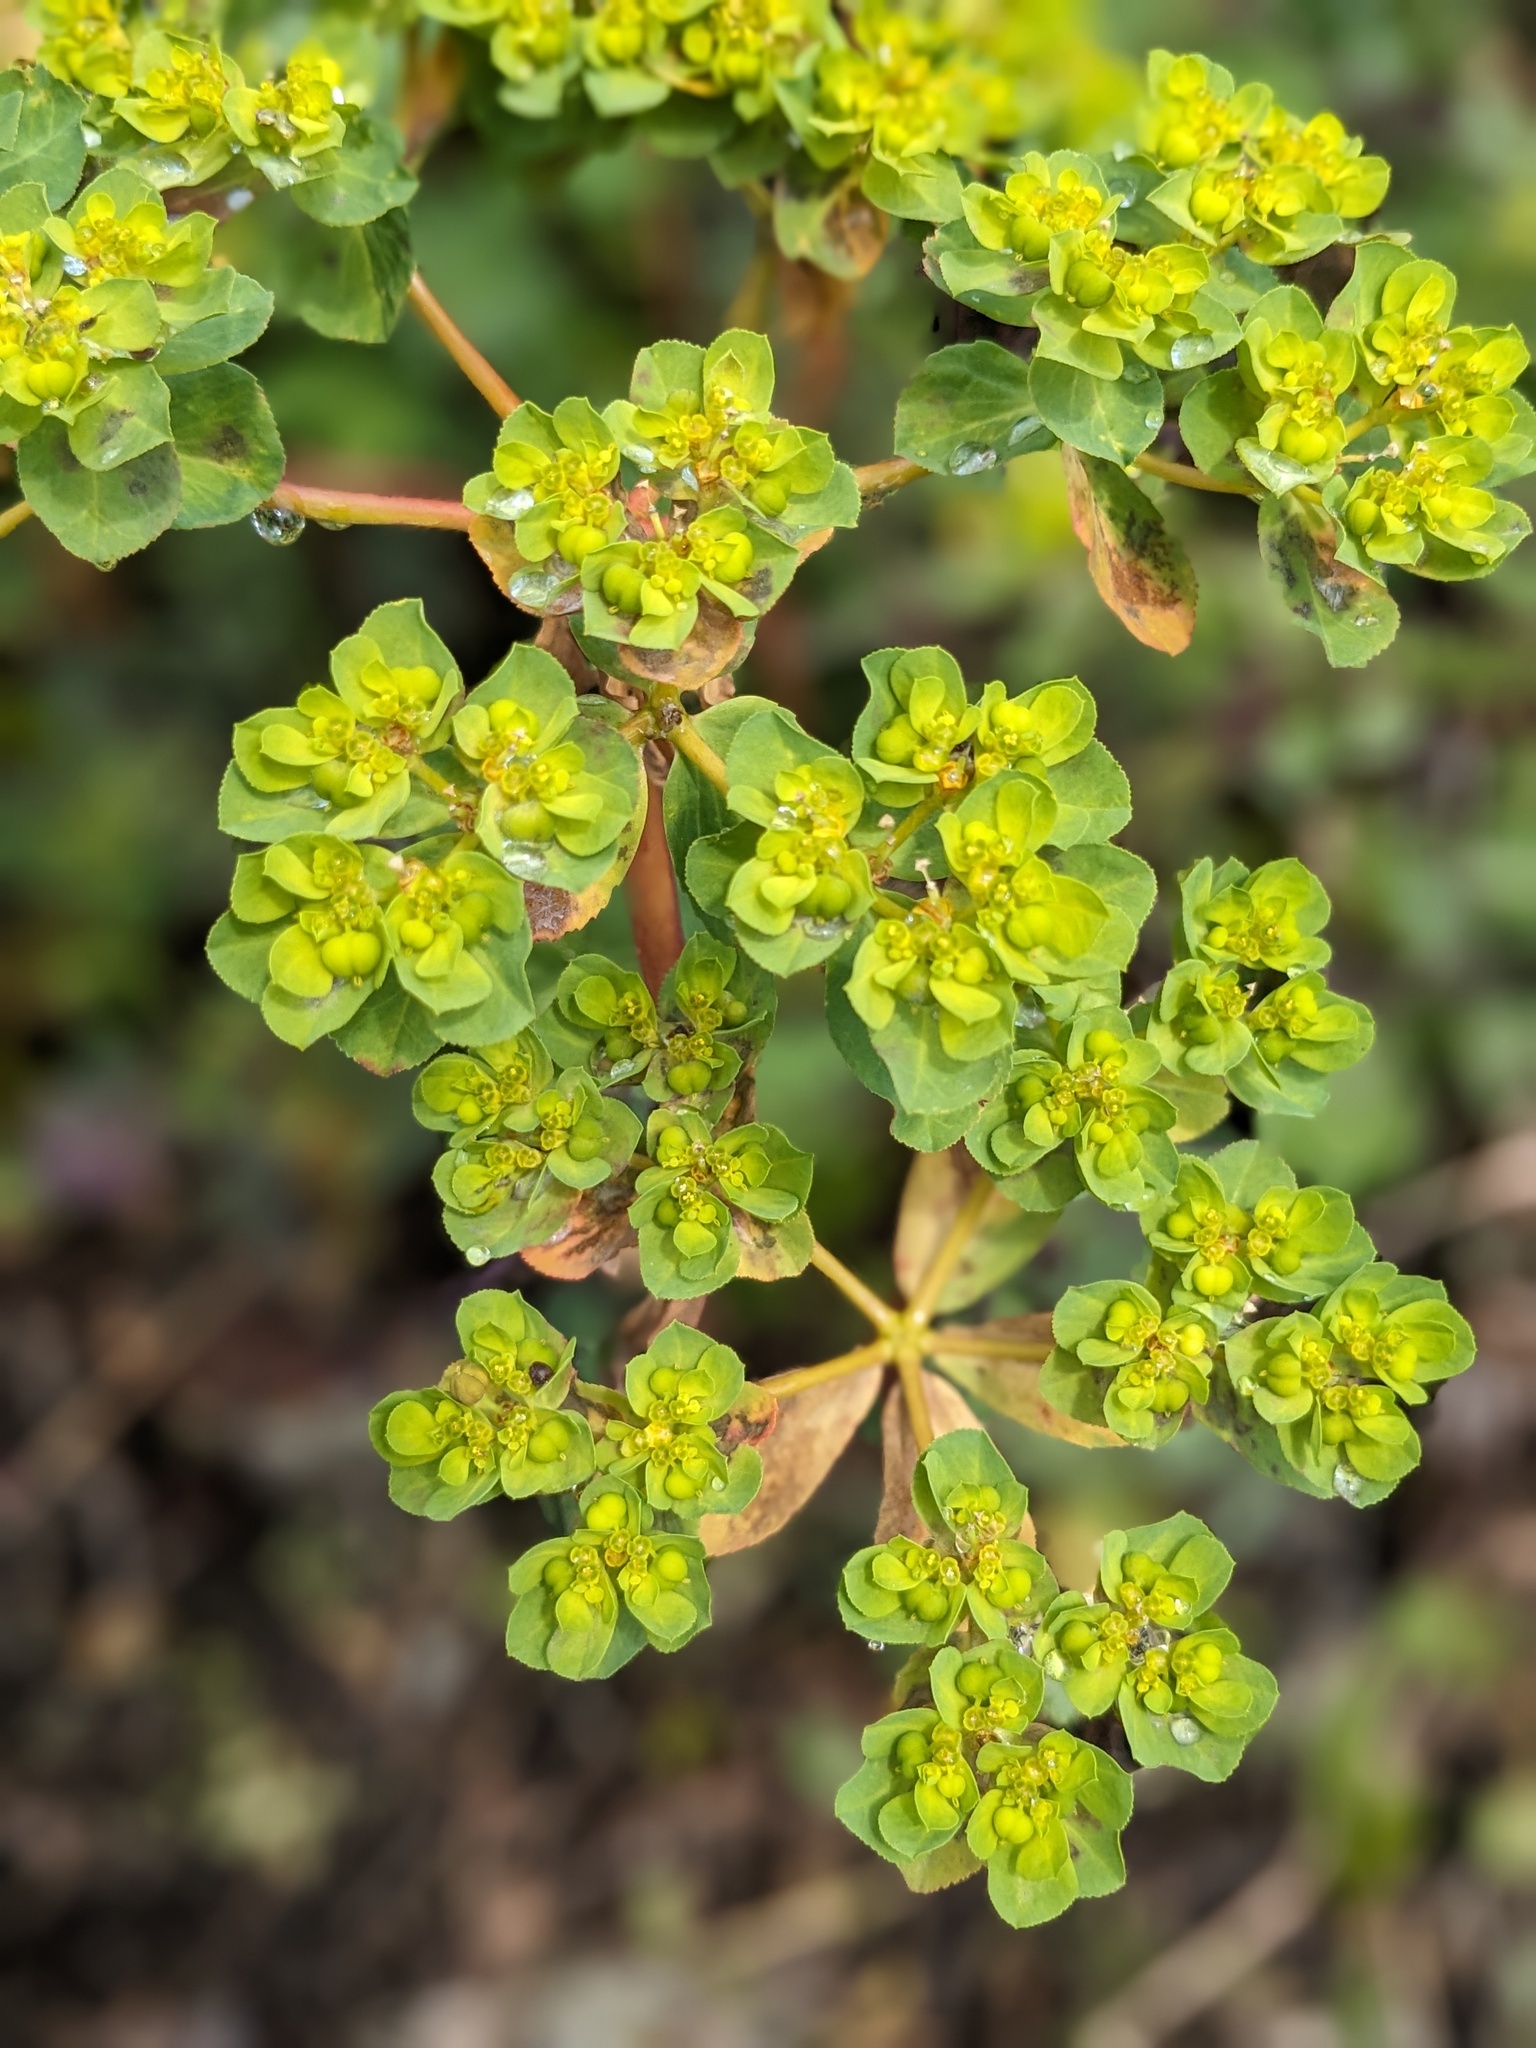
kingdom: Plantae
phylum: Tracheophyta
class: Magnoliopsida
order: Malpighiales
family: Euphorbiaceae
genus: Euphorbia
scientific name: Euphorbia helioscopia
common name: Sun spurge
